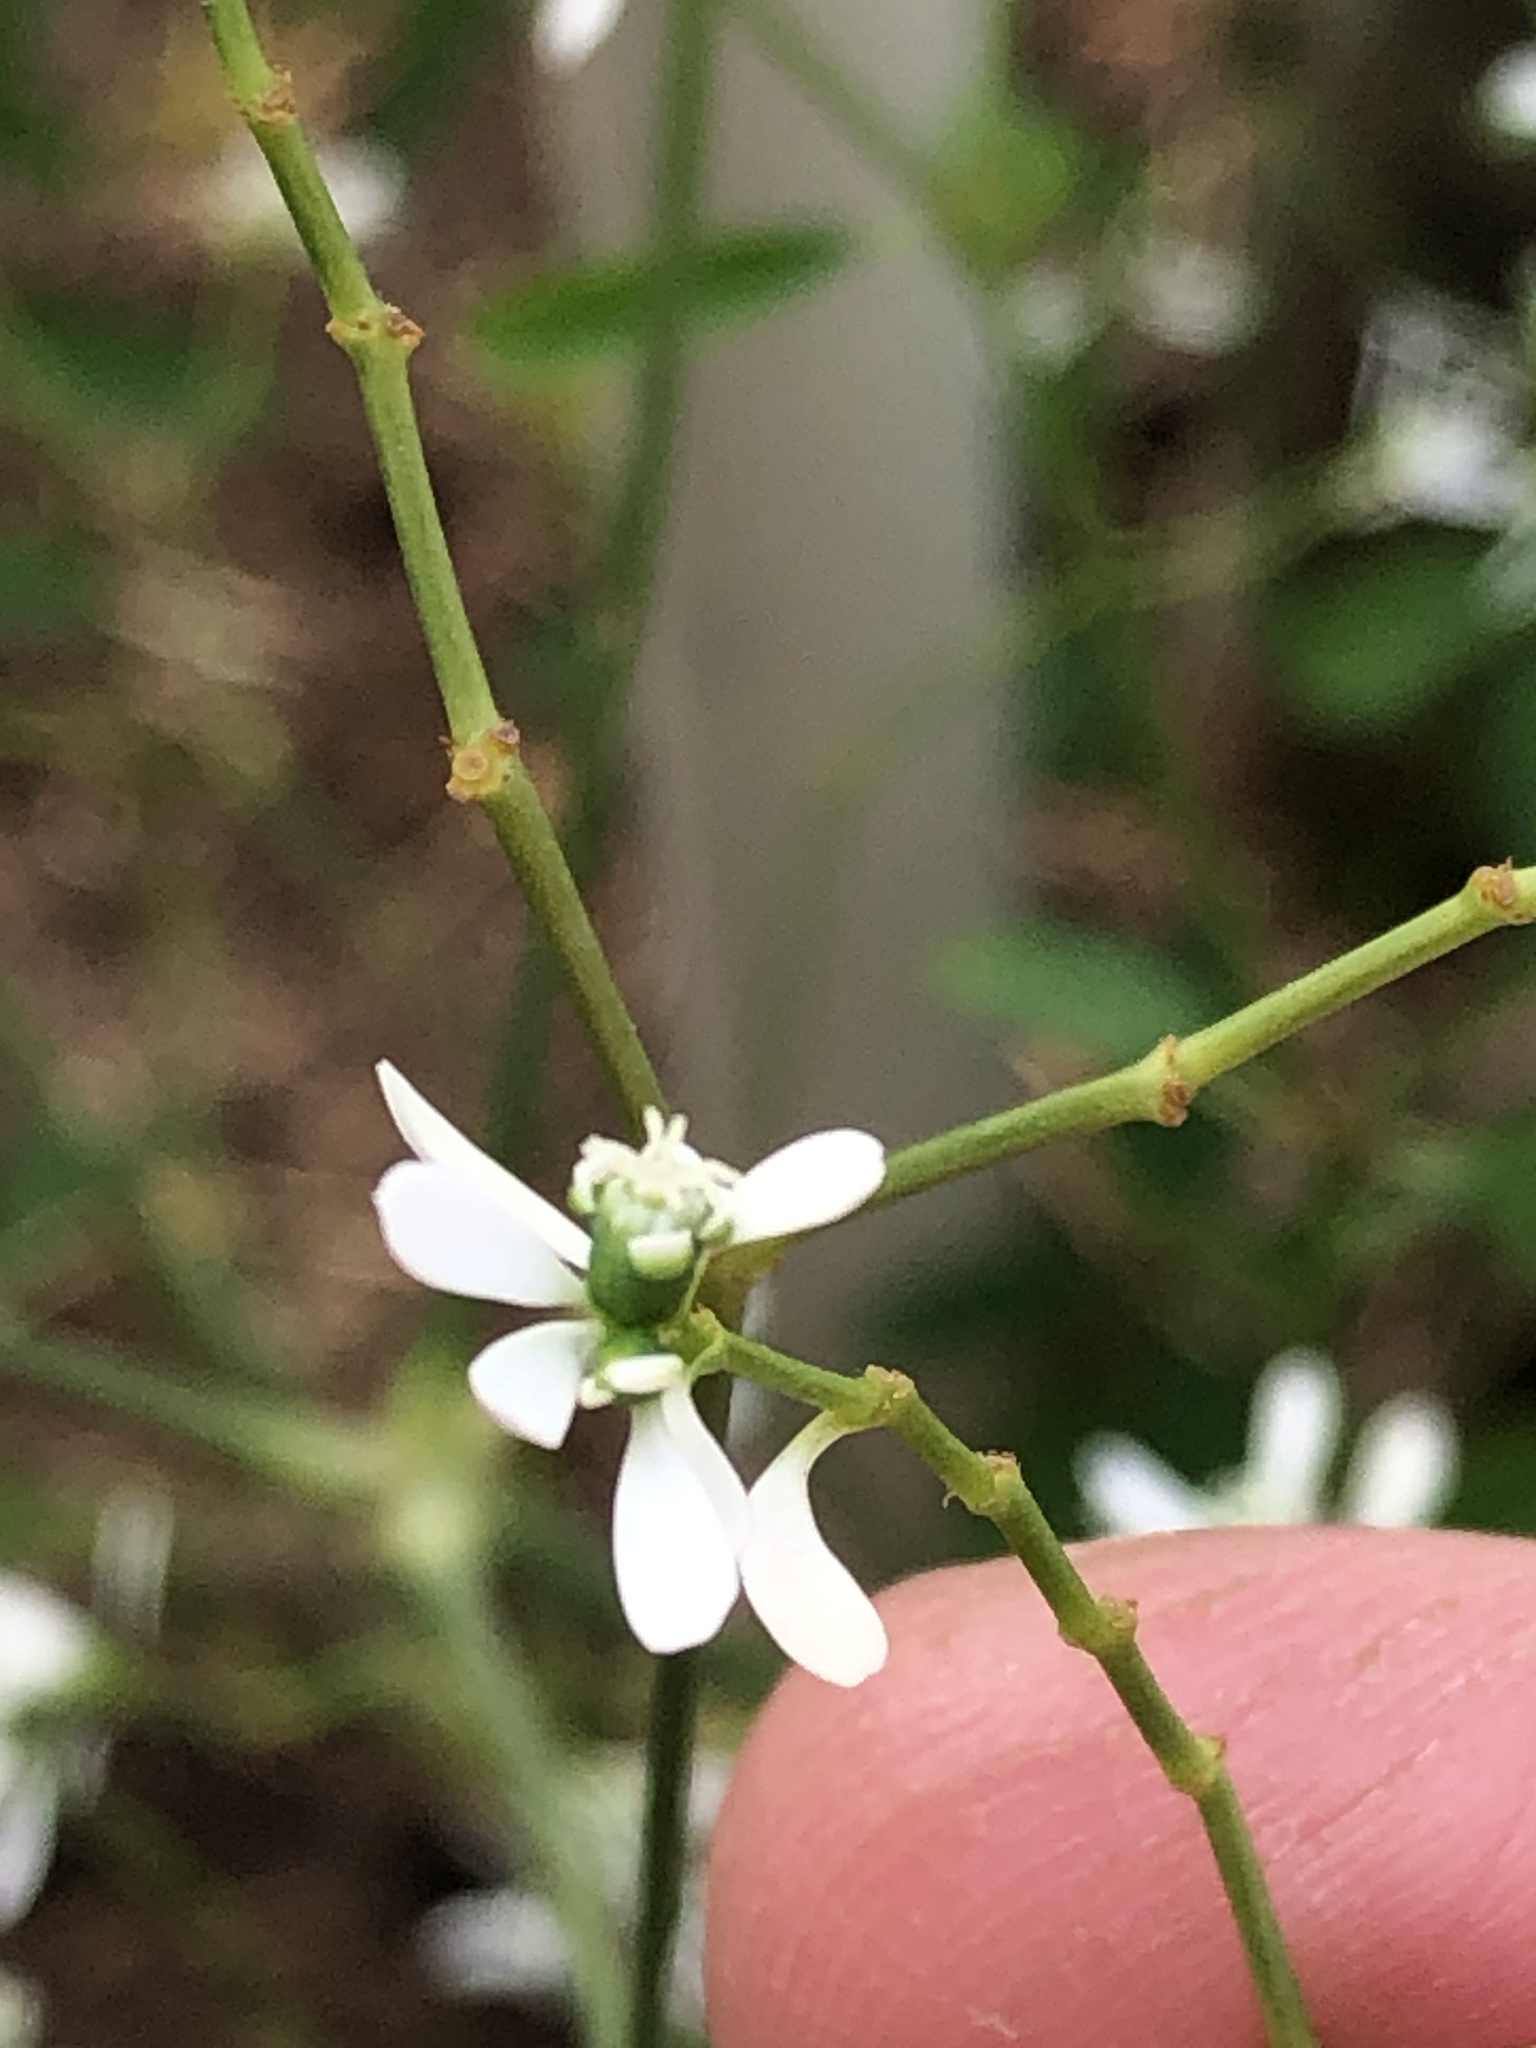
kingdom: Plantae
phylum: Tracheophyta
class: Magnoliopsida
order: Malpighiales
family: Euphorbiaceae
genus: Euphorbia
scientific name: Euphorbia graminea
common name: Grassleaf spurge
